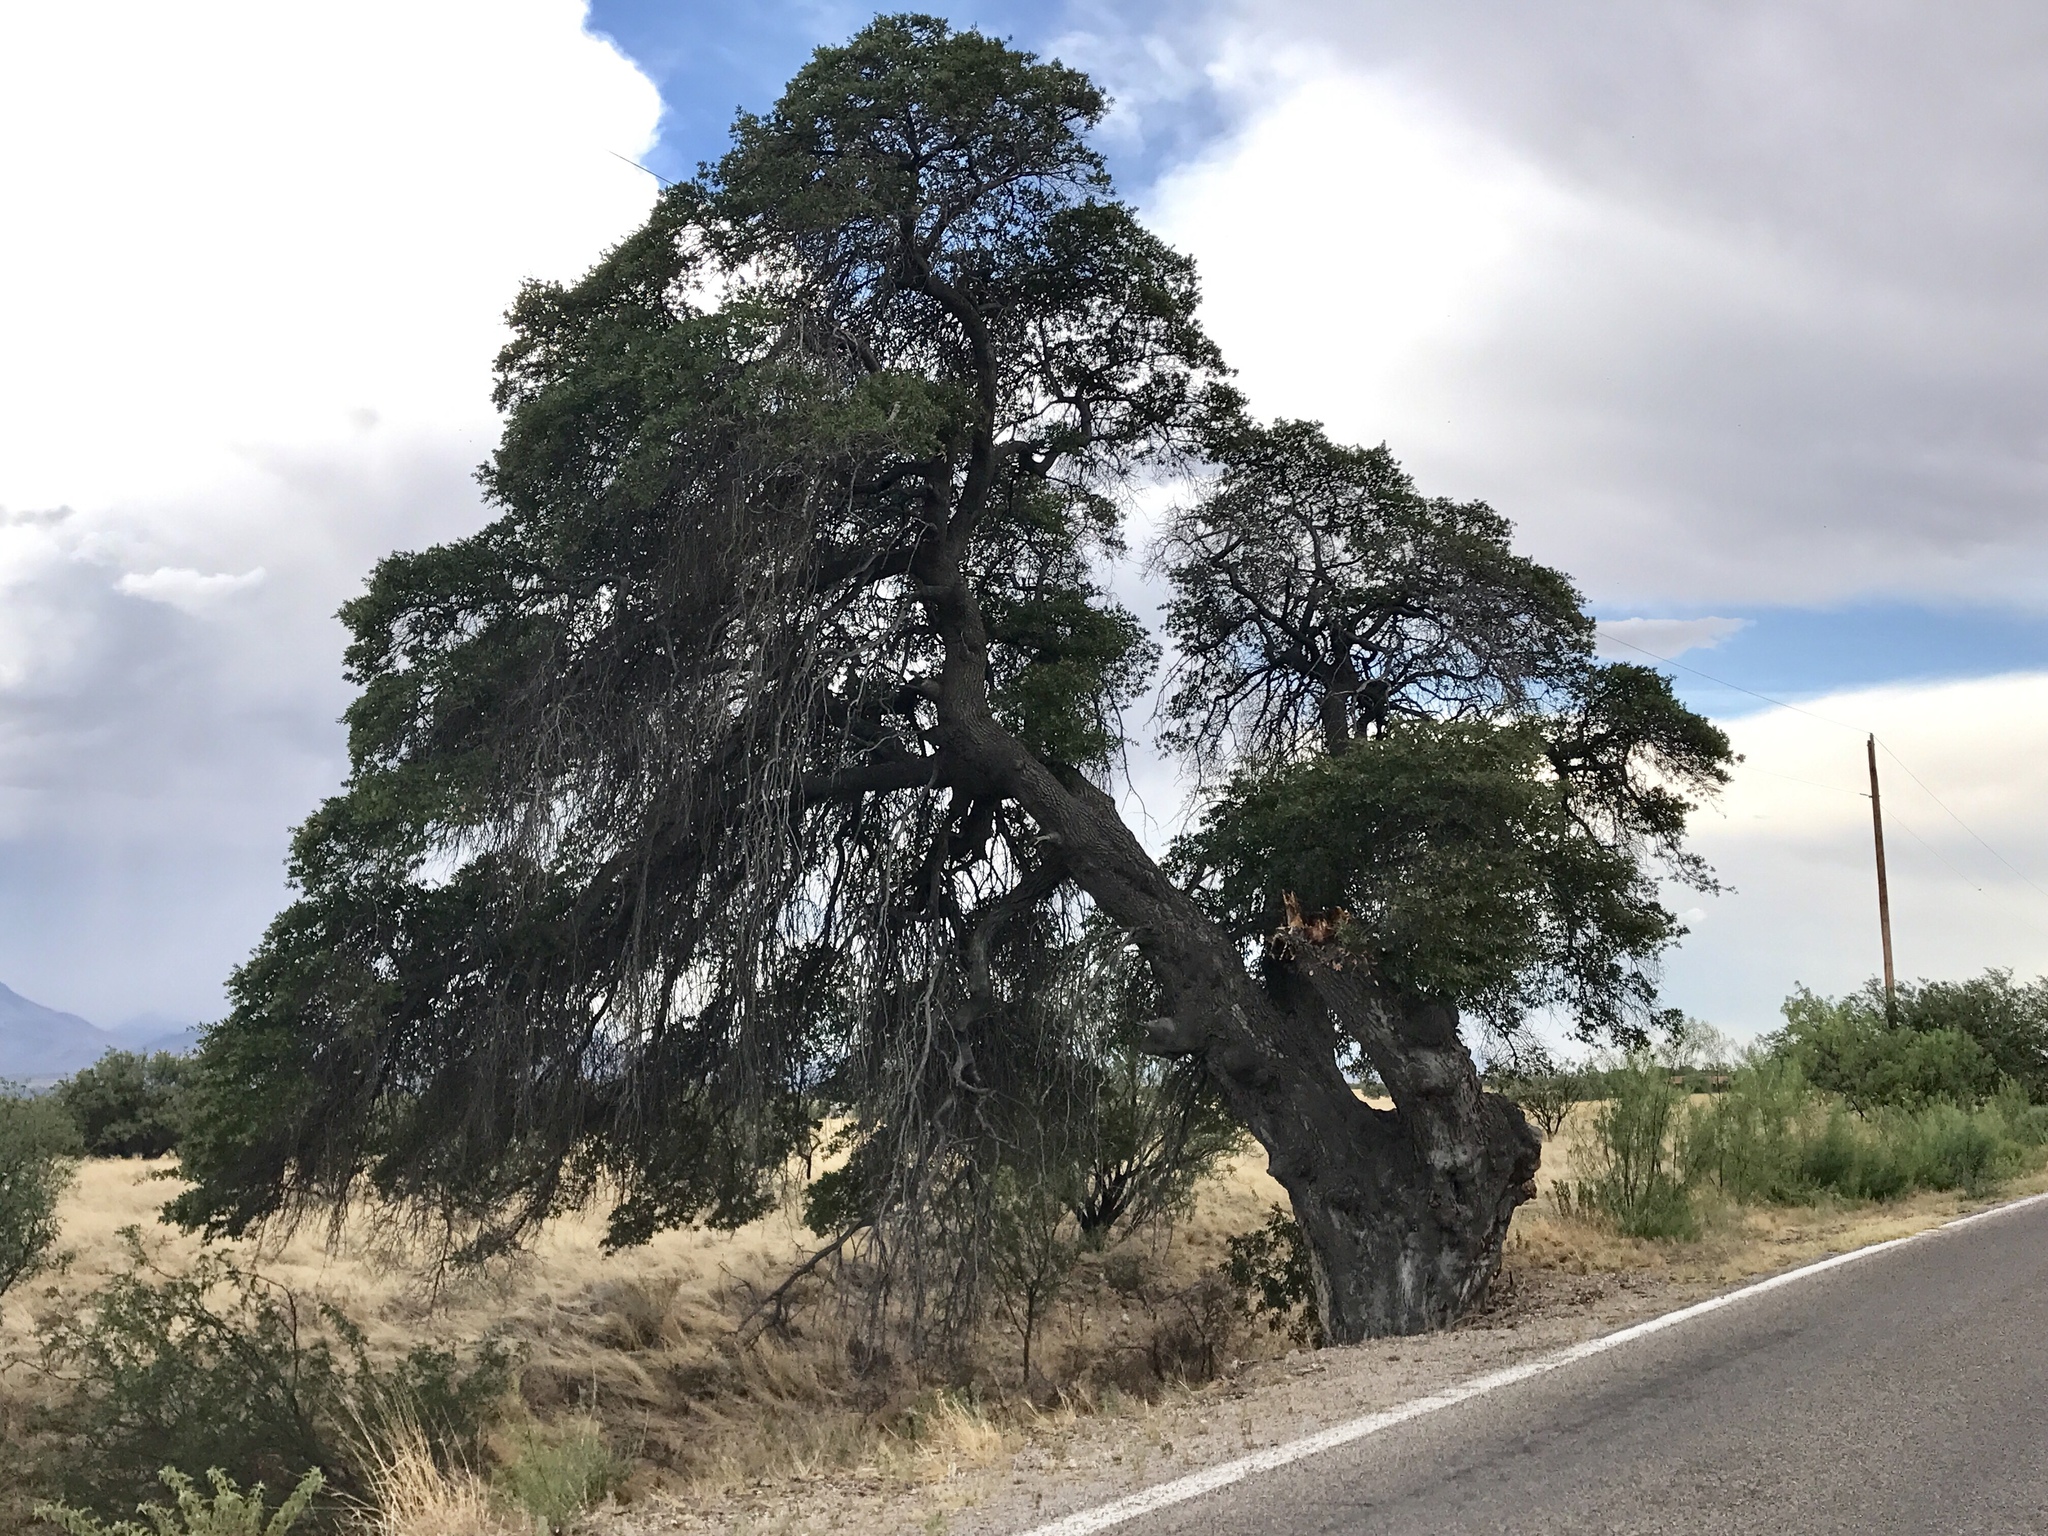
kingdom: Plantae
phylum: Tracheophyta
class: Magnoliopsida
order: Fagales
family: Fagaceae
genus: Quercus
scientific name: Quercus emoryi
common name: Emory oak
